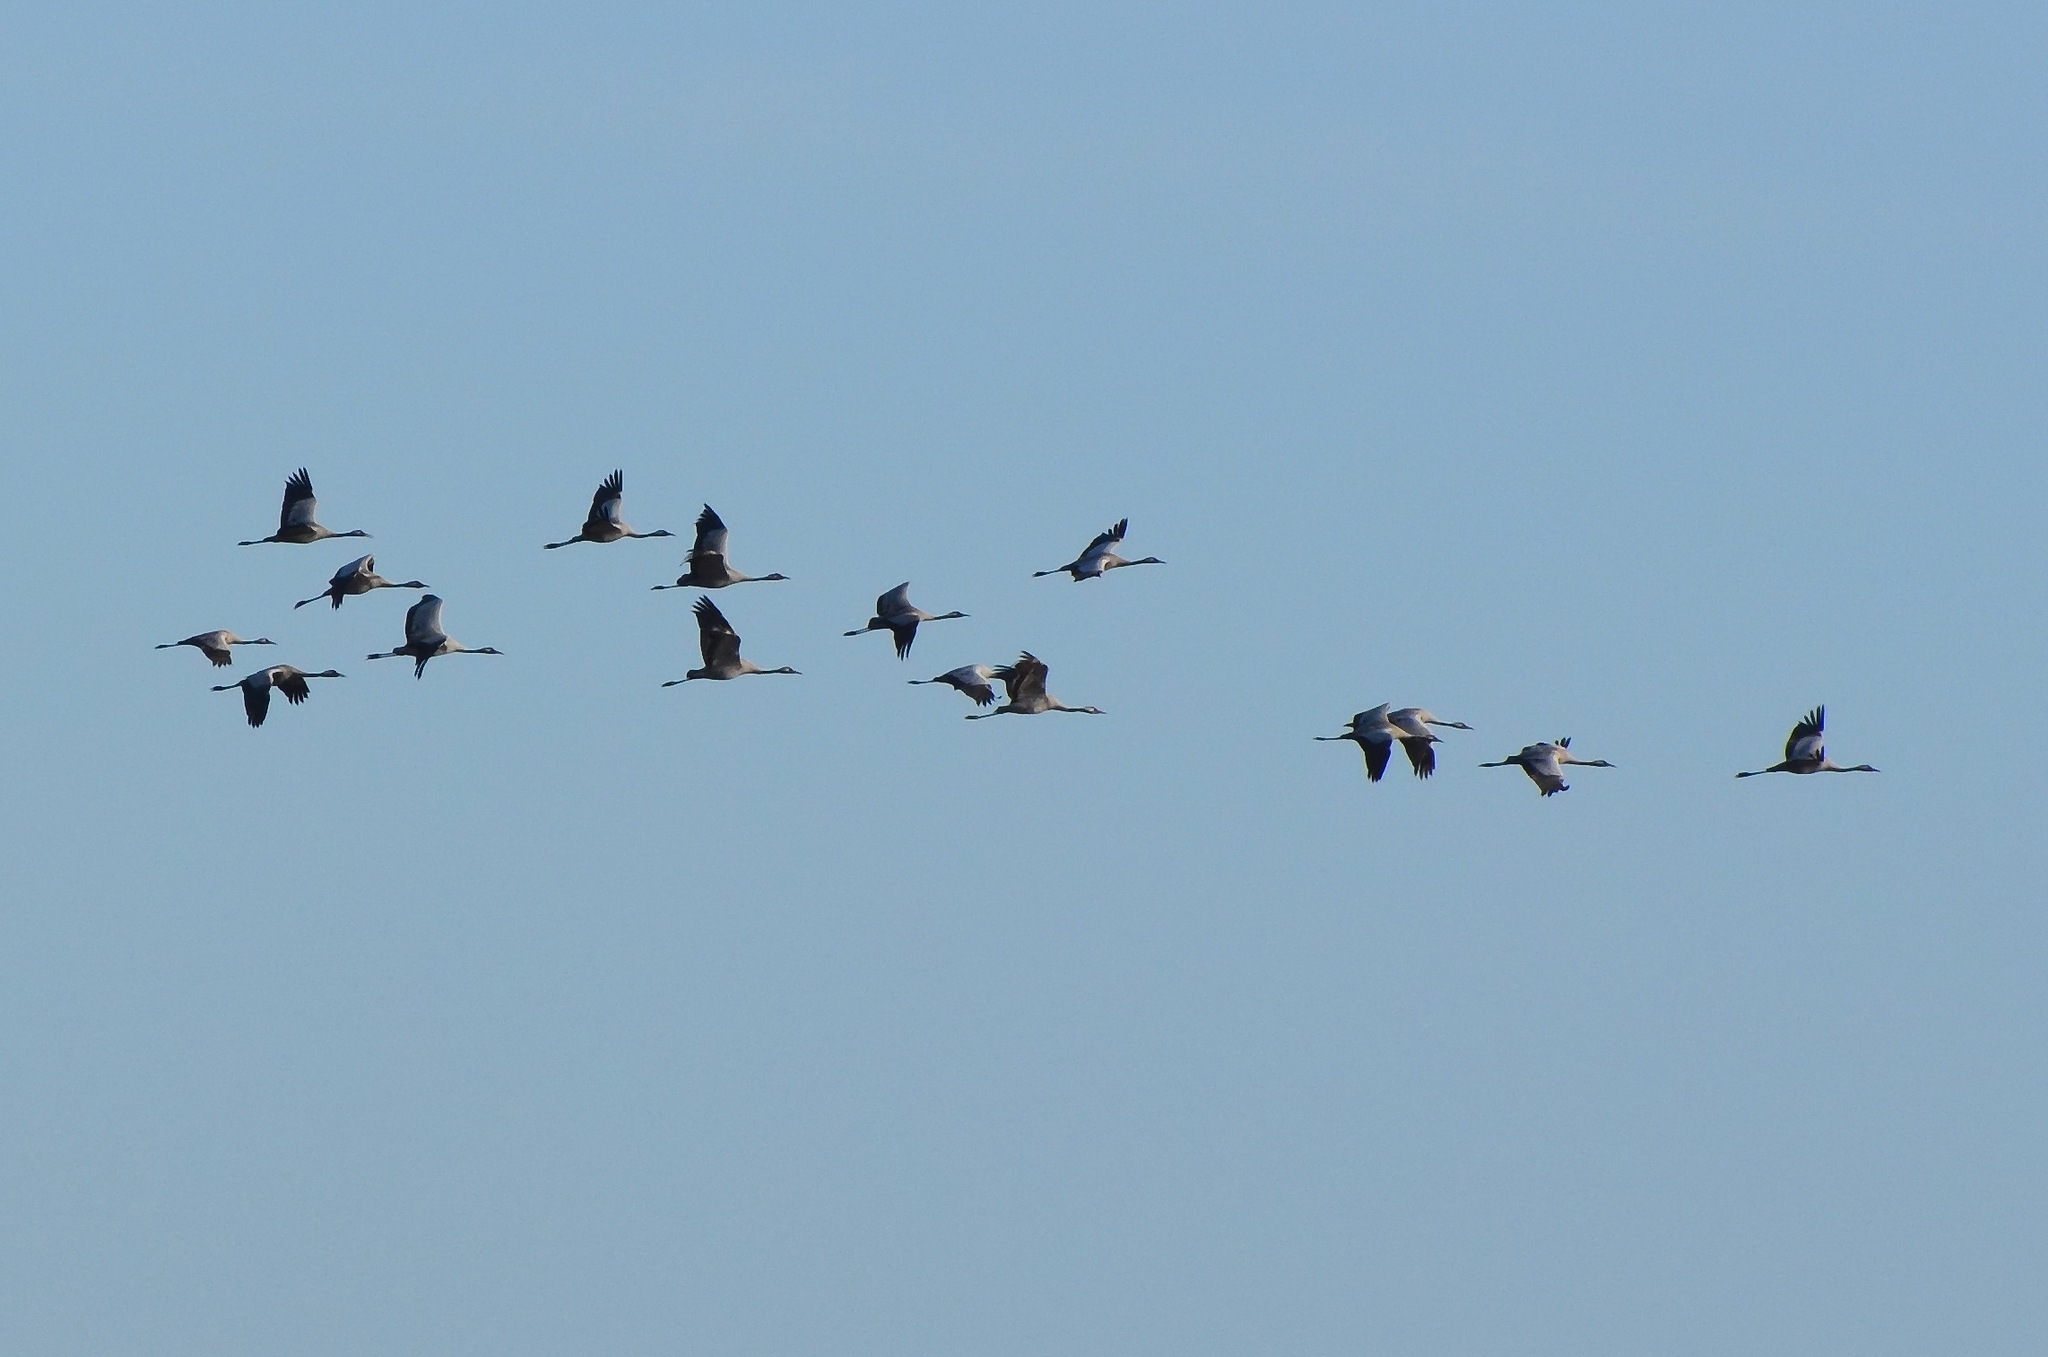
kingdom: Animalia
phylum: Chordata
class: Aves
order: Gruiformes
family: Gruidae
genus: Grus
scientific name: Grus grus
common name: Common crane
